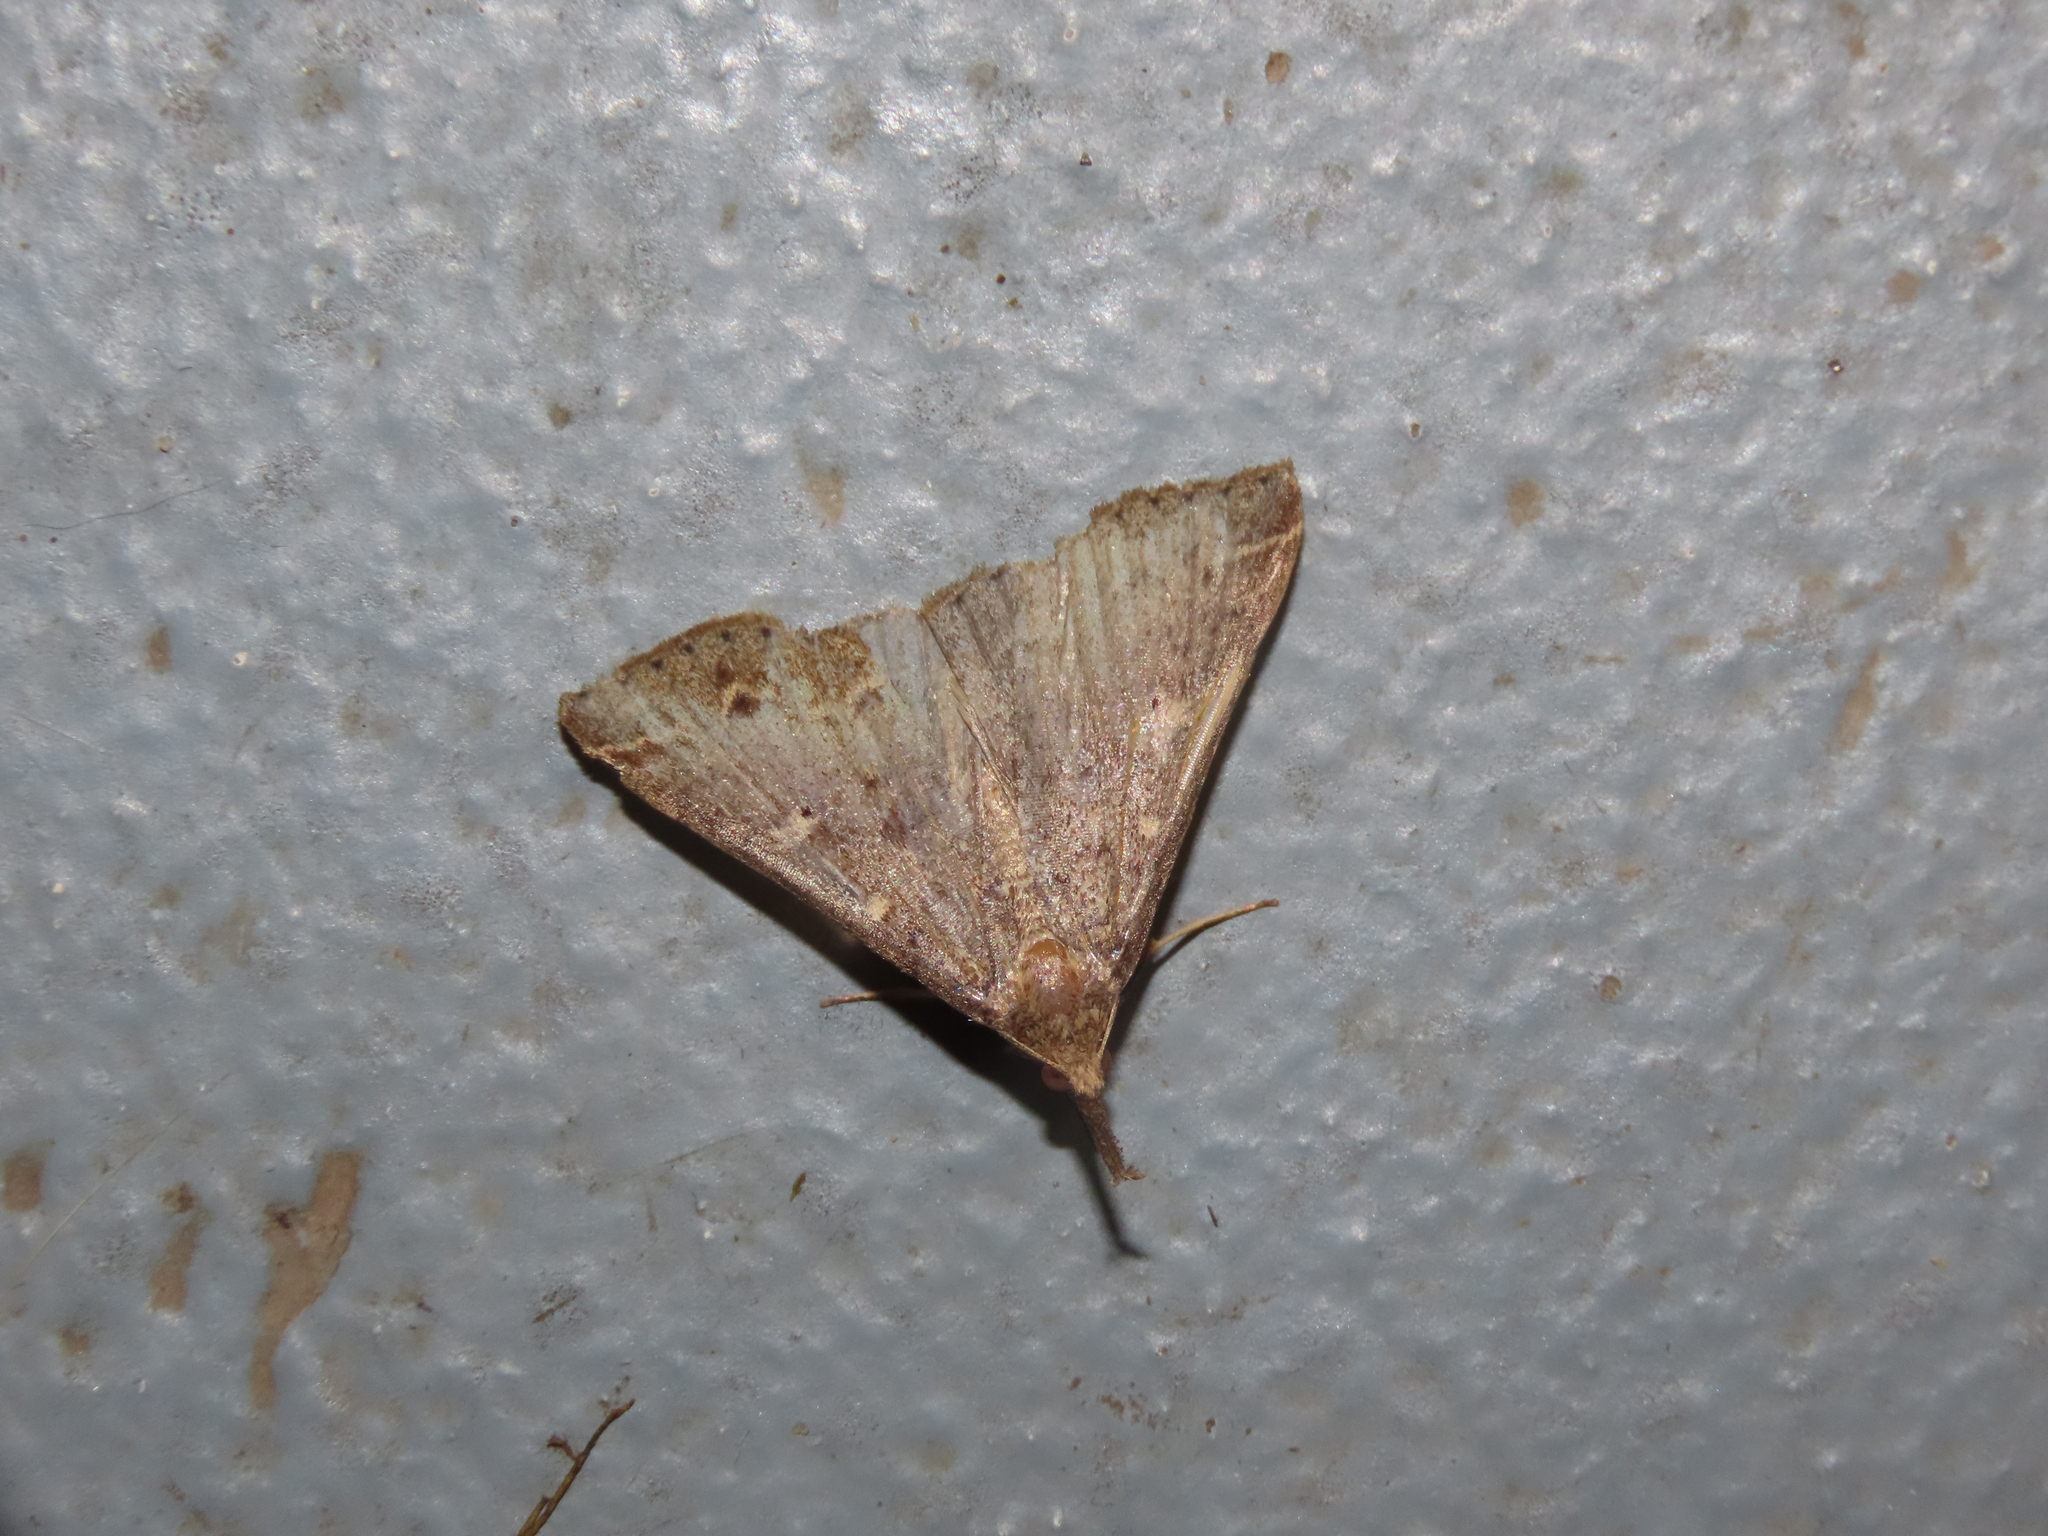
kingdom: Animalia
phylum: Arthropoda
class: Insecta
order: Lepidoptera
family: Erebidae
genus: Renia
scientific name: Renia discoloralis
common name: Discolored renia moth
